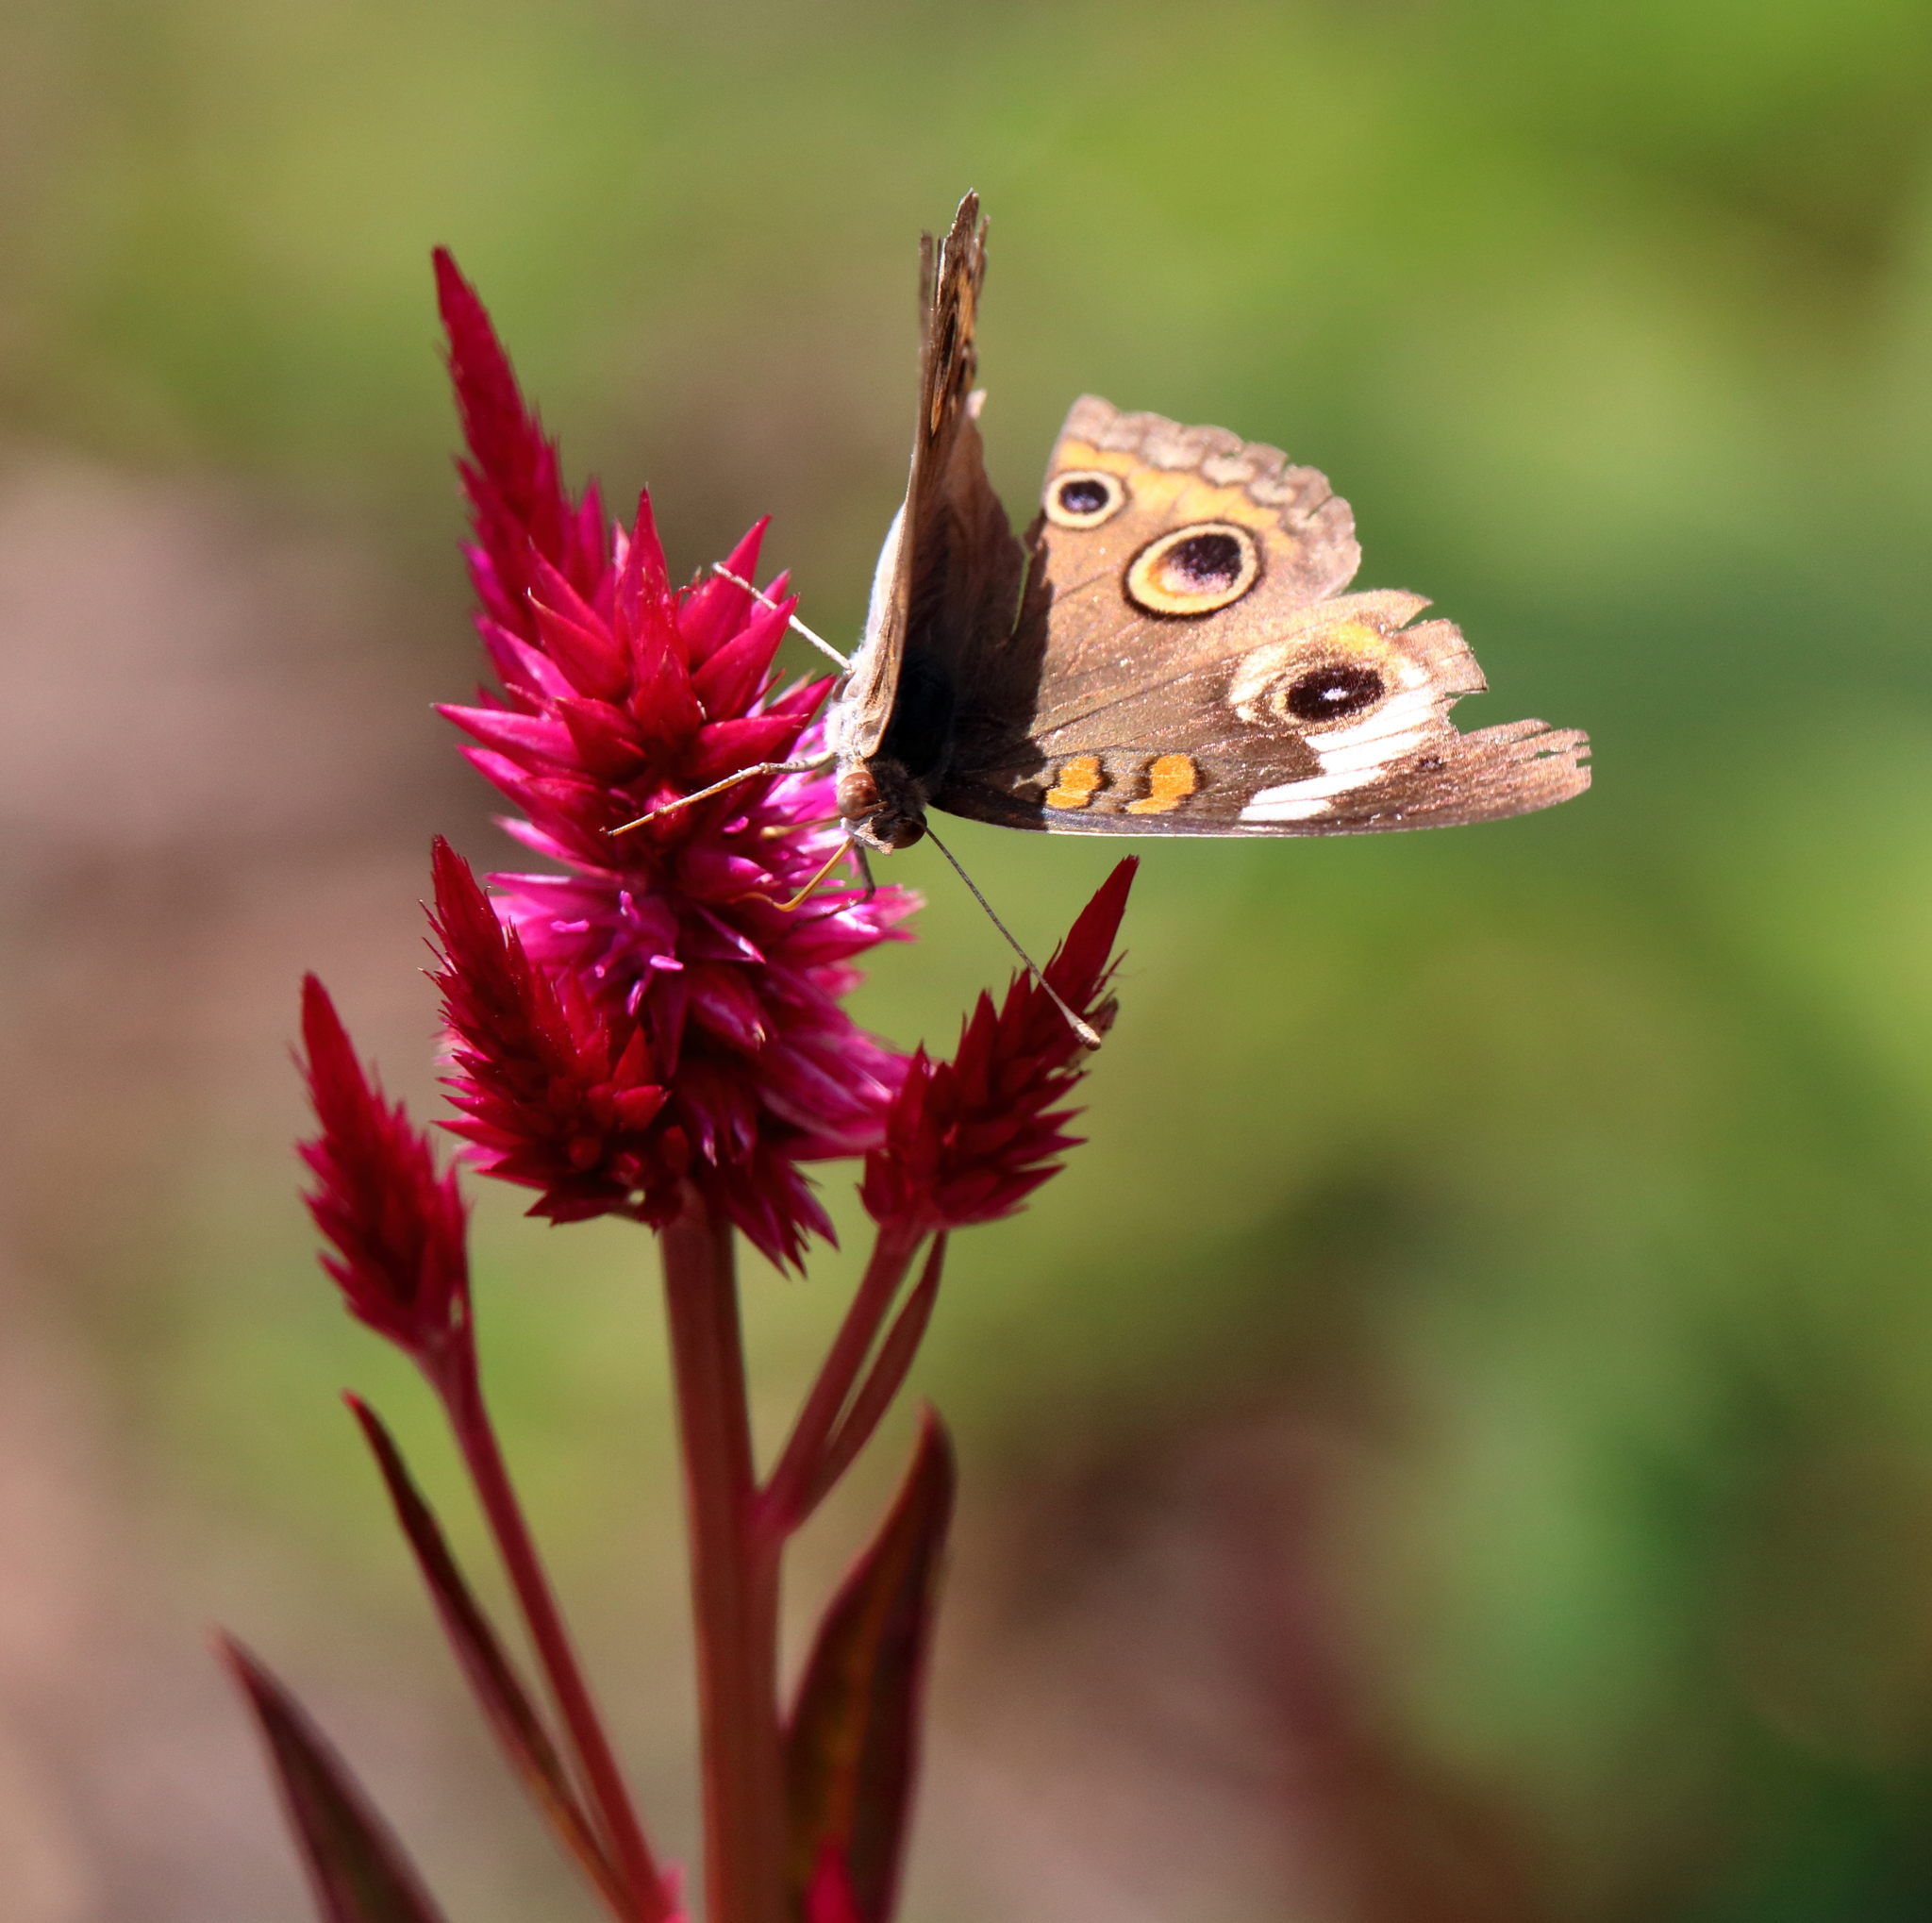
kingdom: Animalia
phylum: Arthropoda
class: Insecta
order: Lepidoptera
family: Nymphalidae
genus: Junonia
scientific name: Junonia coenia
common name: Common buckeye
